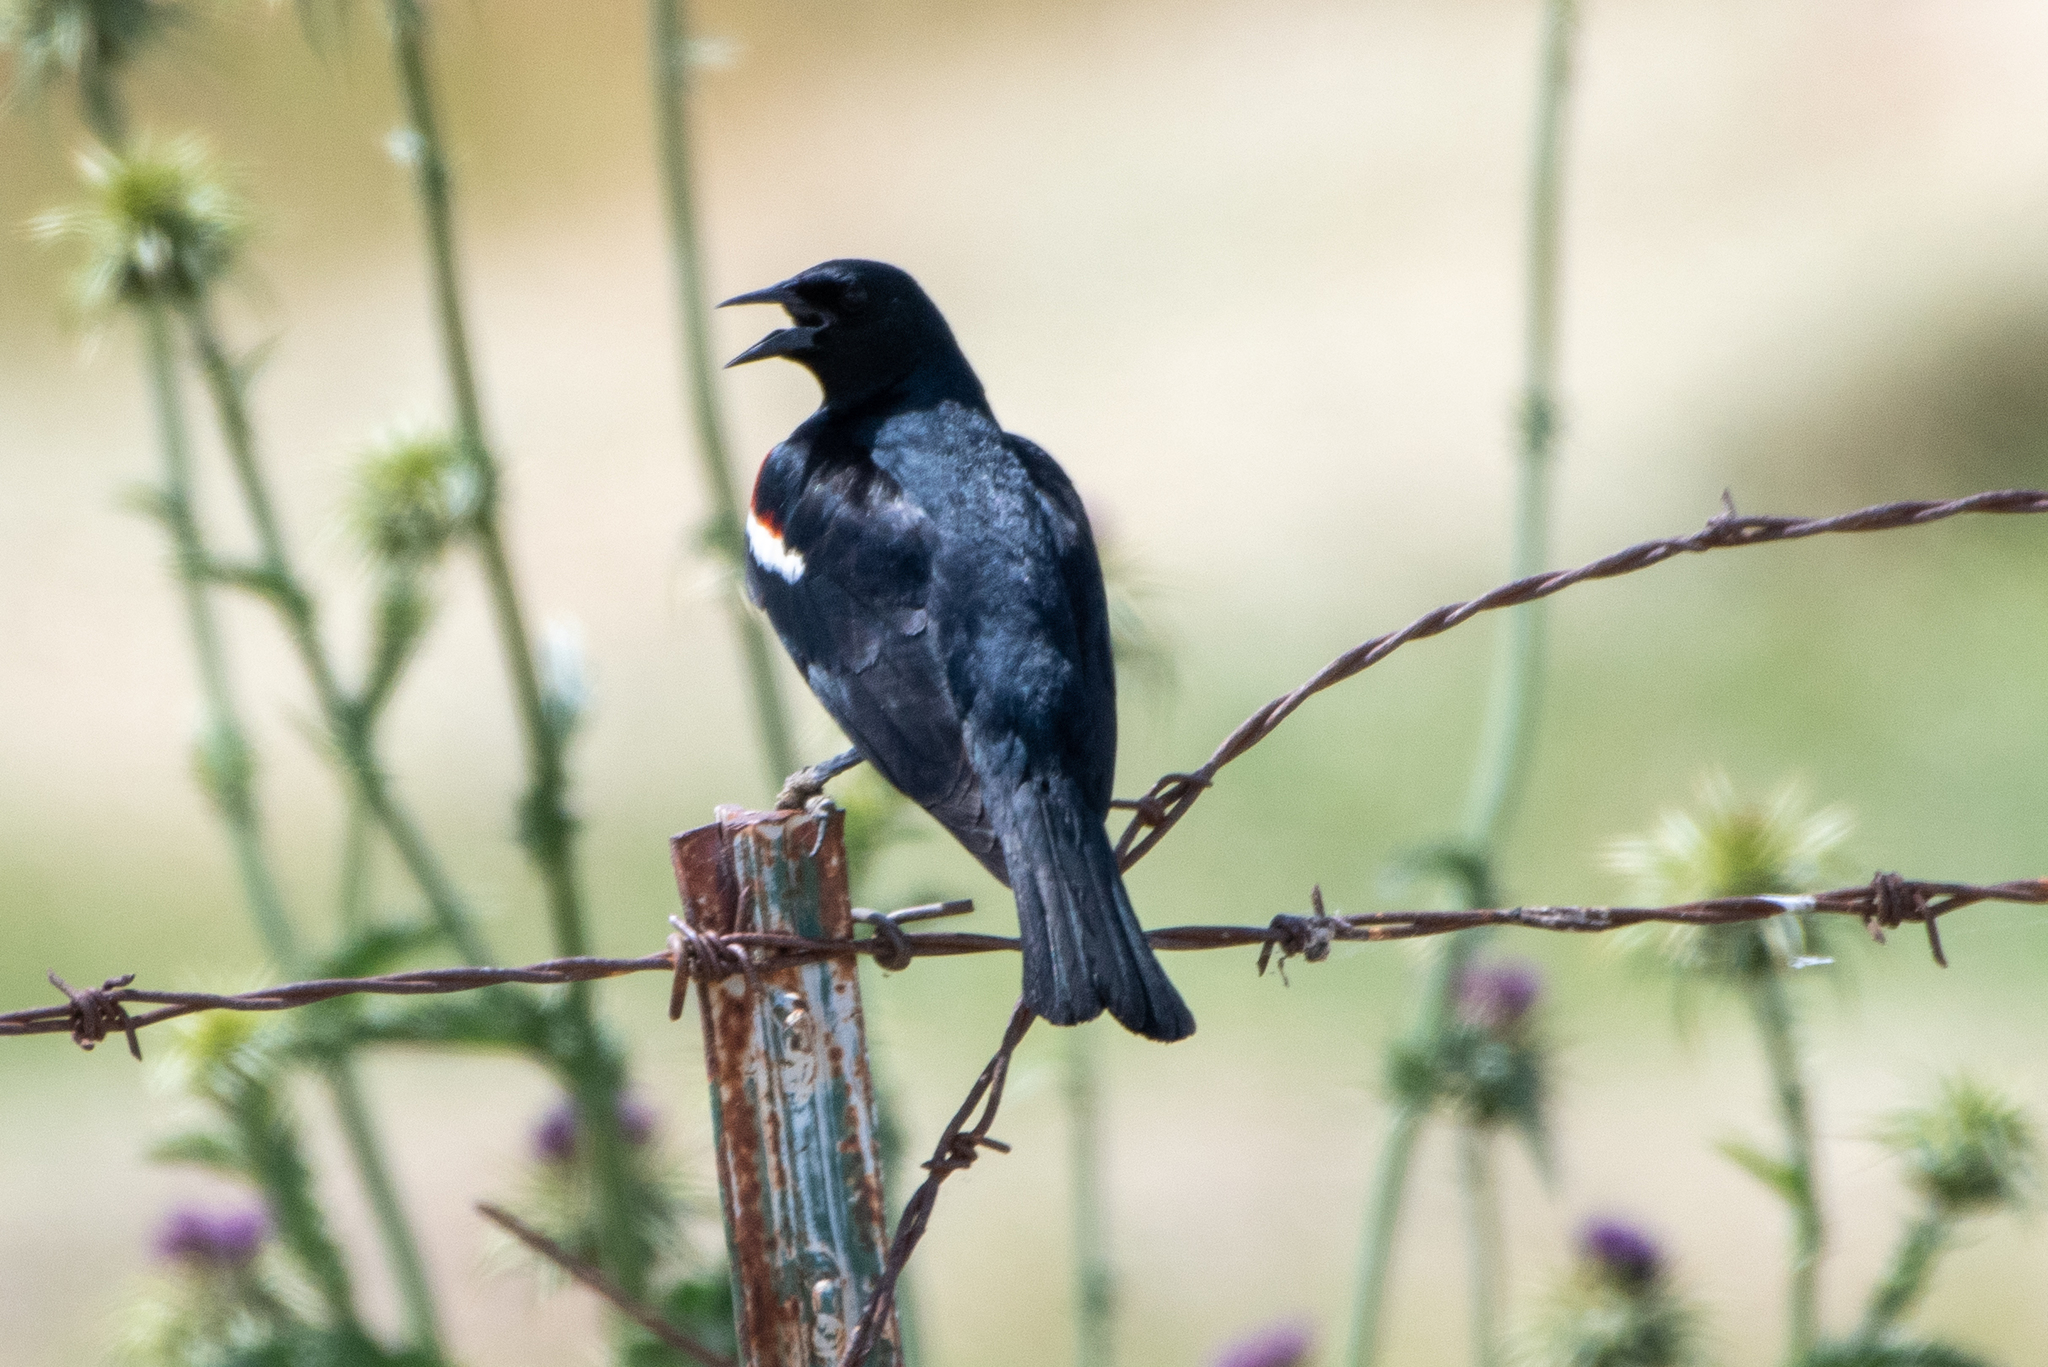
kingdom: Animalia
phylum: Chordata
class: Aves
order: Passeriformes
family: Icteridae
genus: Agelaius
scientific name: Agelaius tricolor
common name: Tricolored blackbird
